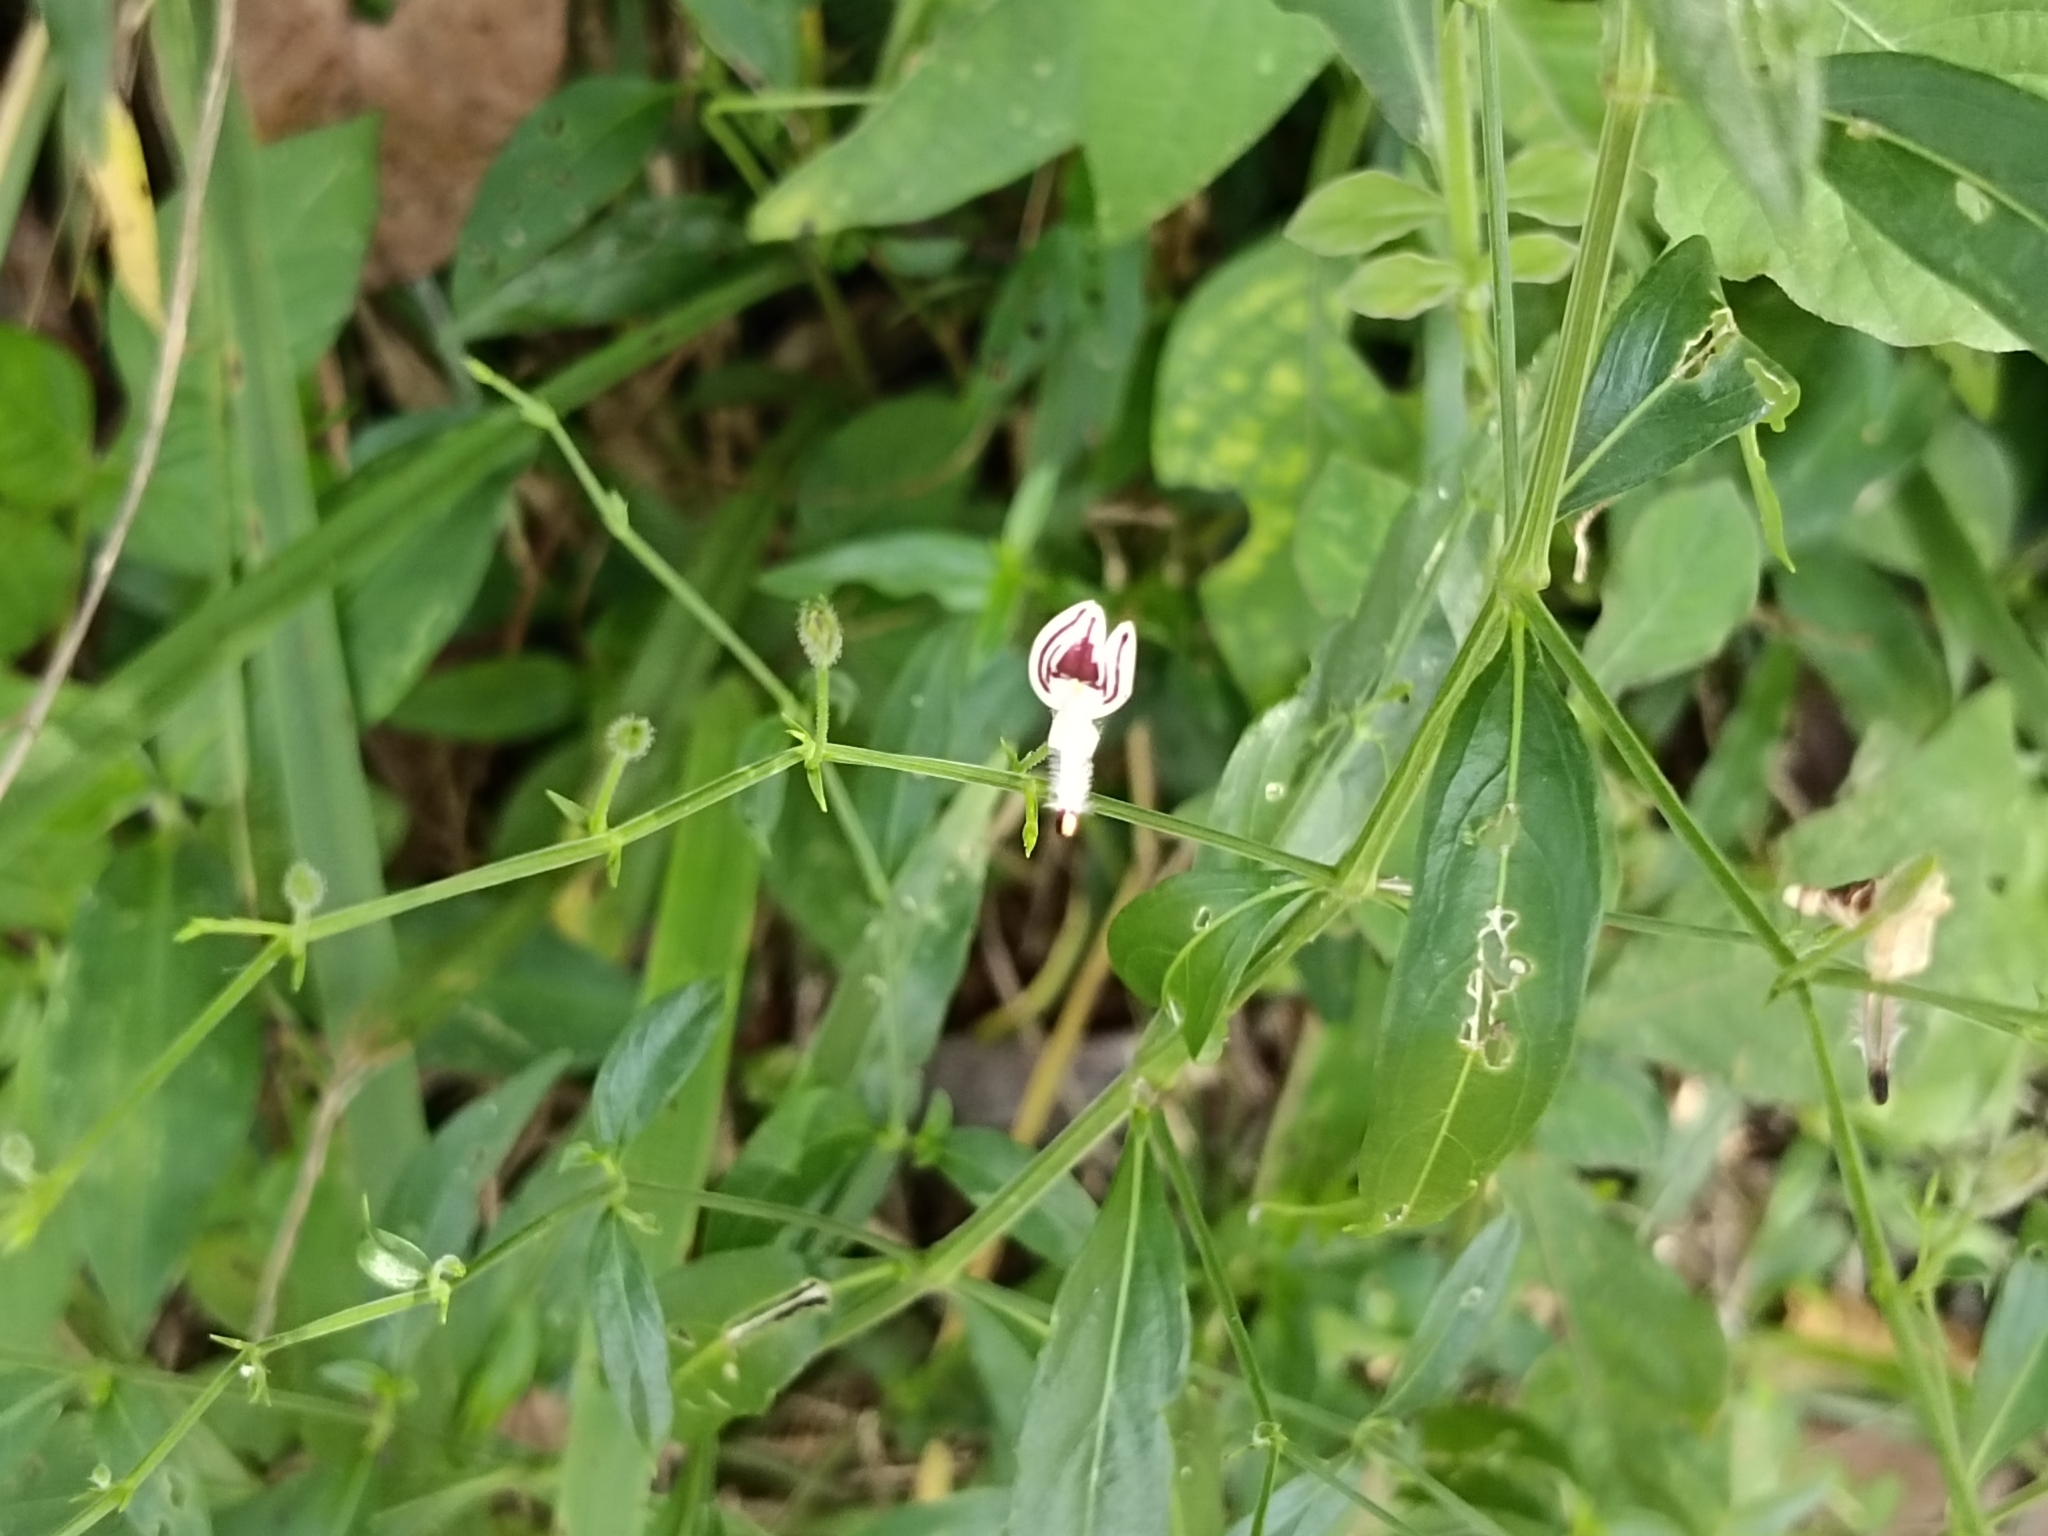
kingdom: Plantae
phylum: Tracheophyta
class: Magnoliopsida
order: Lamiales
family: Acanthaceae
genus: Andrographis
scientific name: Andrographis paniculata
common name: Green chireta
